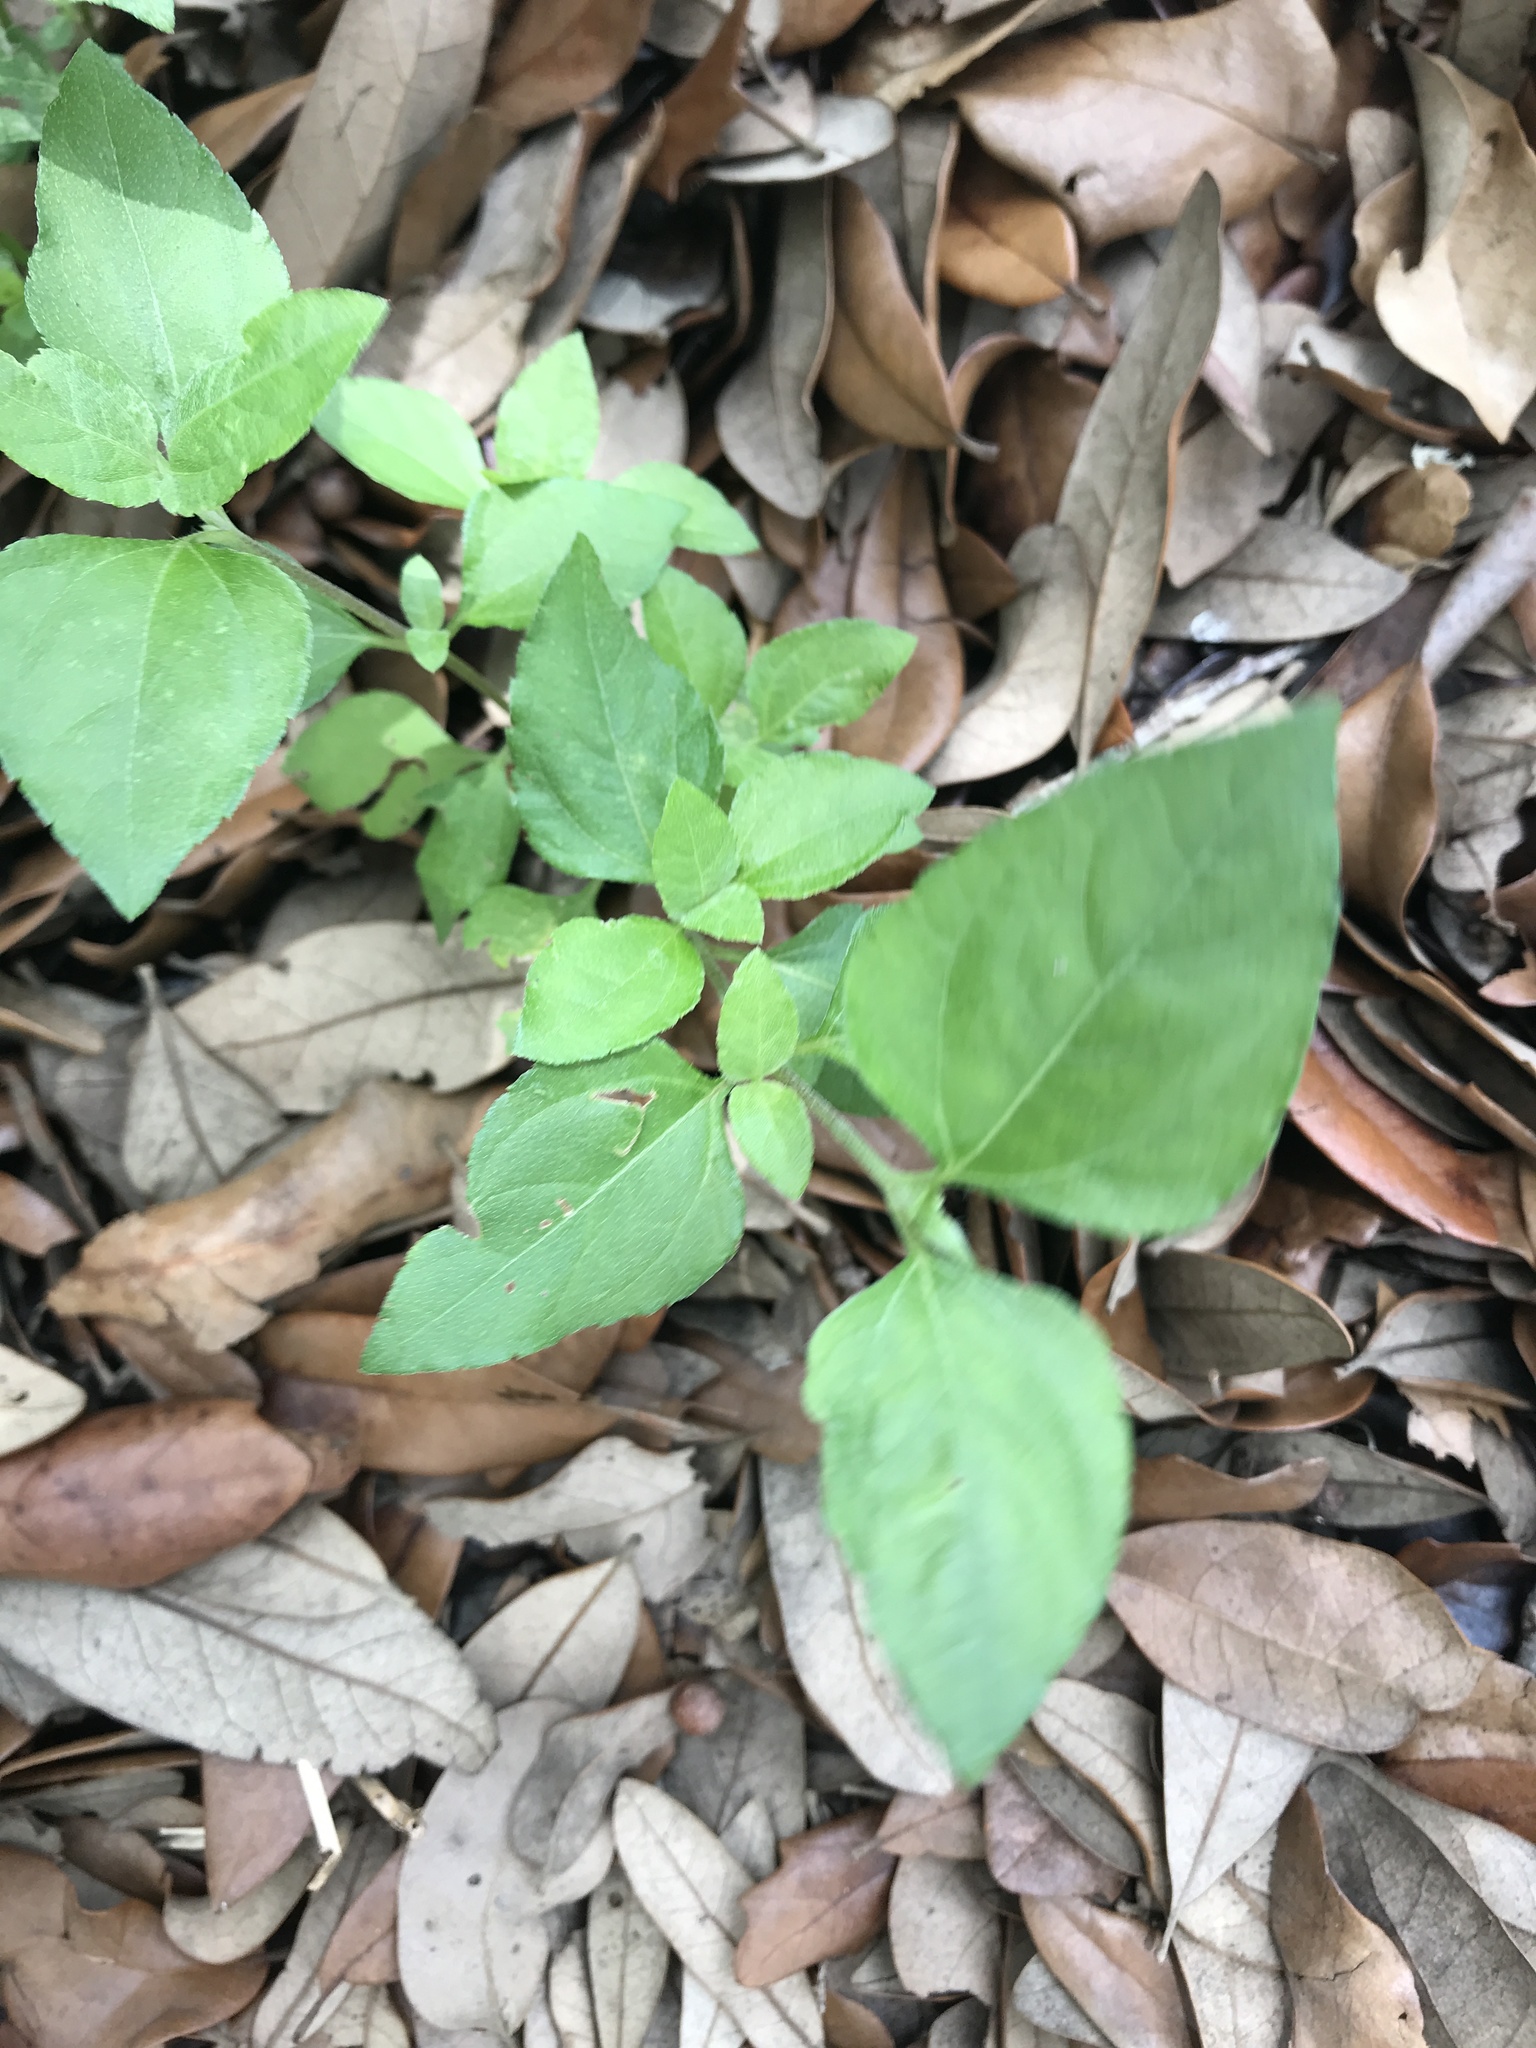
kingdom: Plantae
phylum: Tracheophyta
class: Magnoliopsida
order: Asterales
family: Asteraceae
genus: Calyptocarpus
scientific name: Calyptocarpus vialis
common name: Straggler daisy
